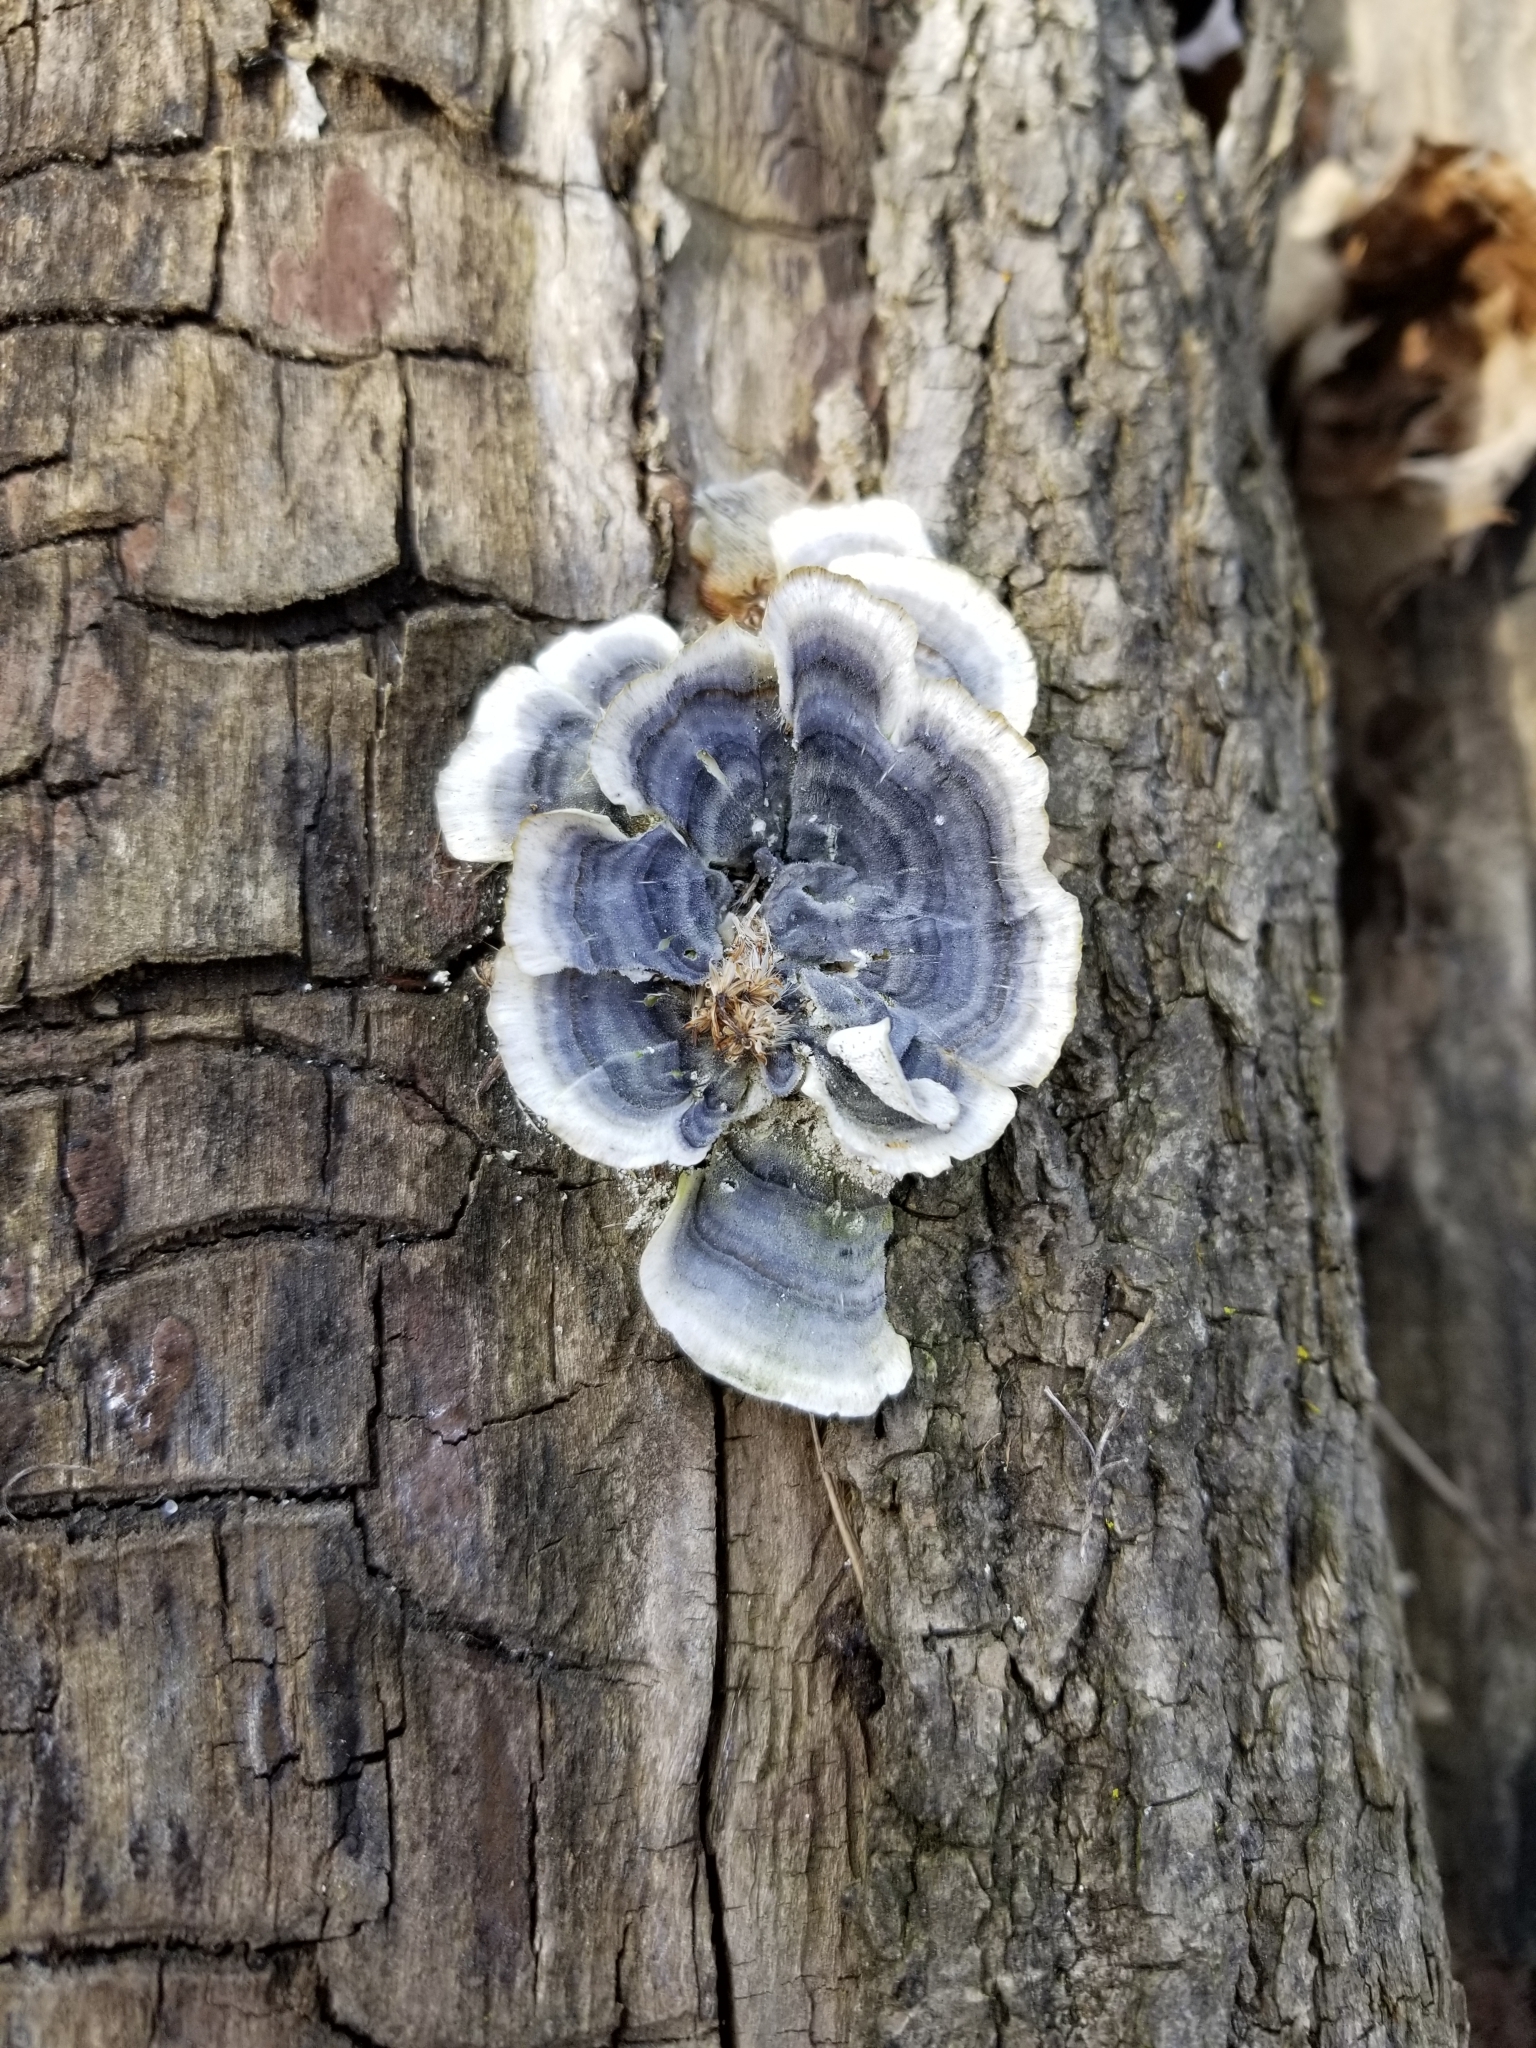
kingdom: Fungi
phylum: Basidiomycota
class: Agaricomycetes
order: Polyporales
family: Polyporaceae
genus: Trametes
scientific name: Trametes versicolor
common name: Turkeytail
